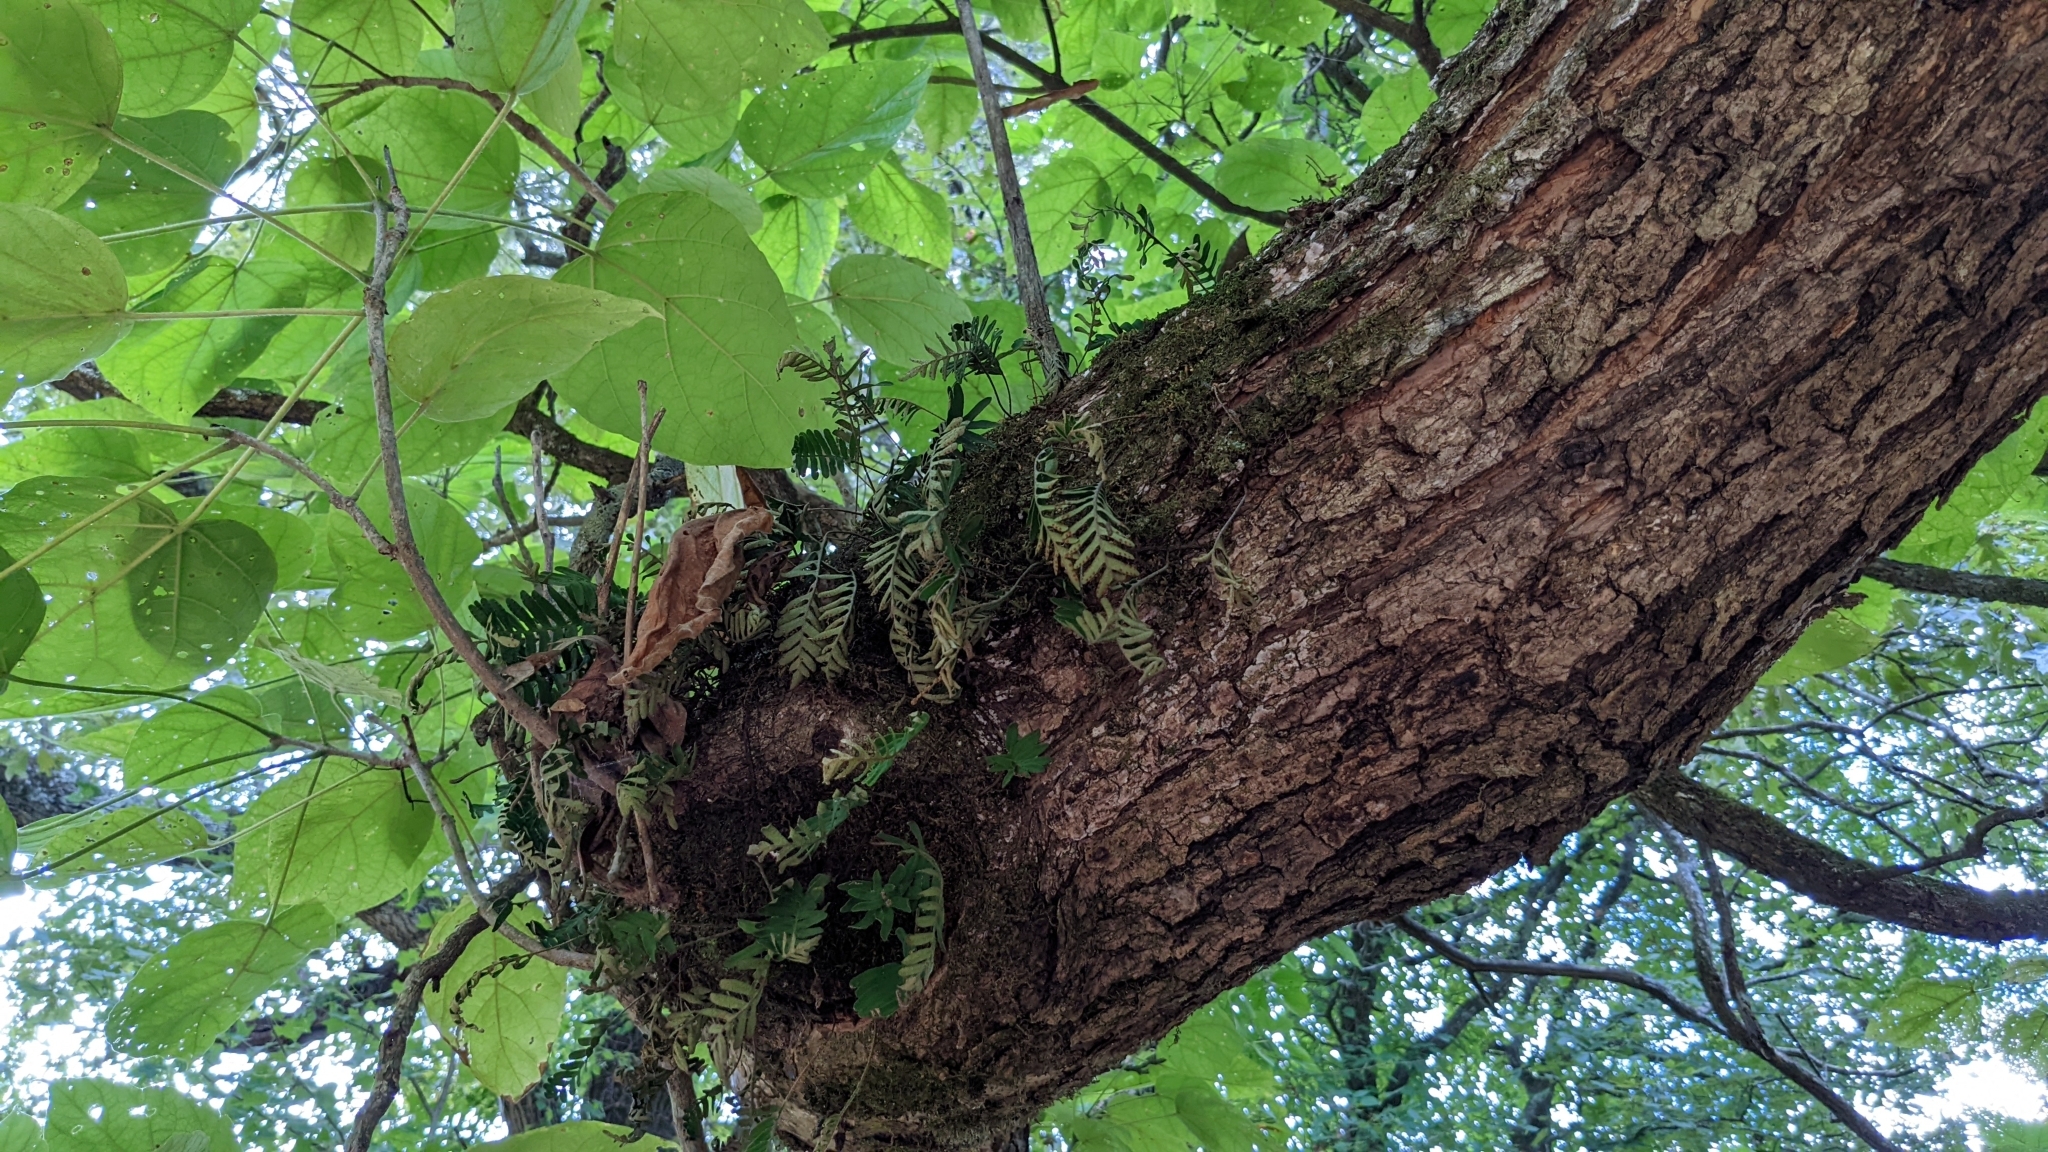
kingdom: Plantae
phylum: Tracheophyta
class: Polypodiopsida
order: Polypodiales
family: Polypodiaceae
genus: Pleopeltis
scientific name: Pleopeltis michauxiana
